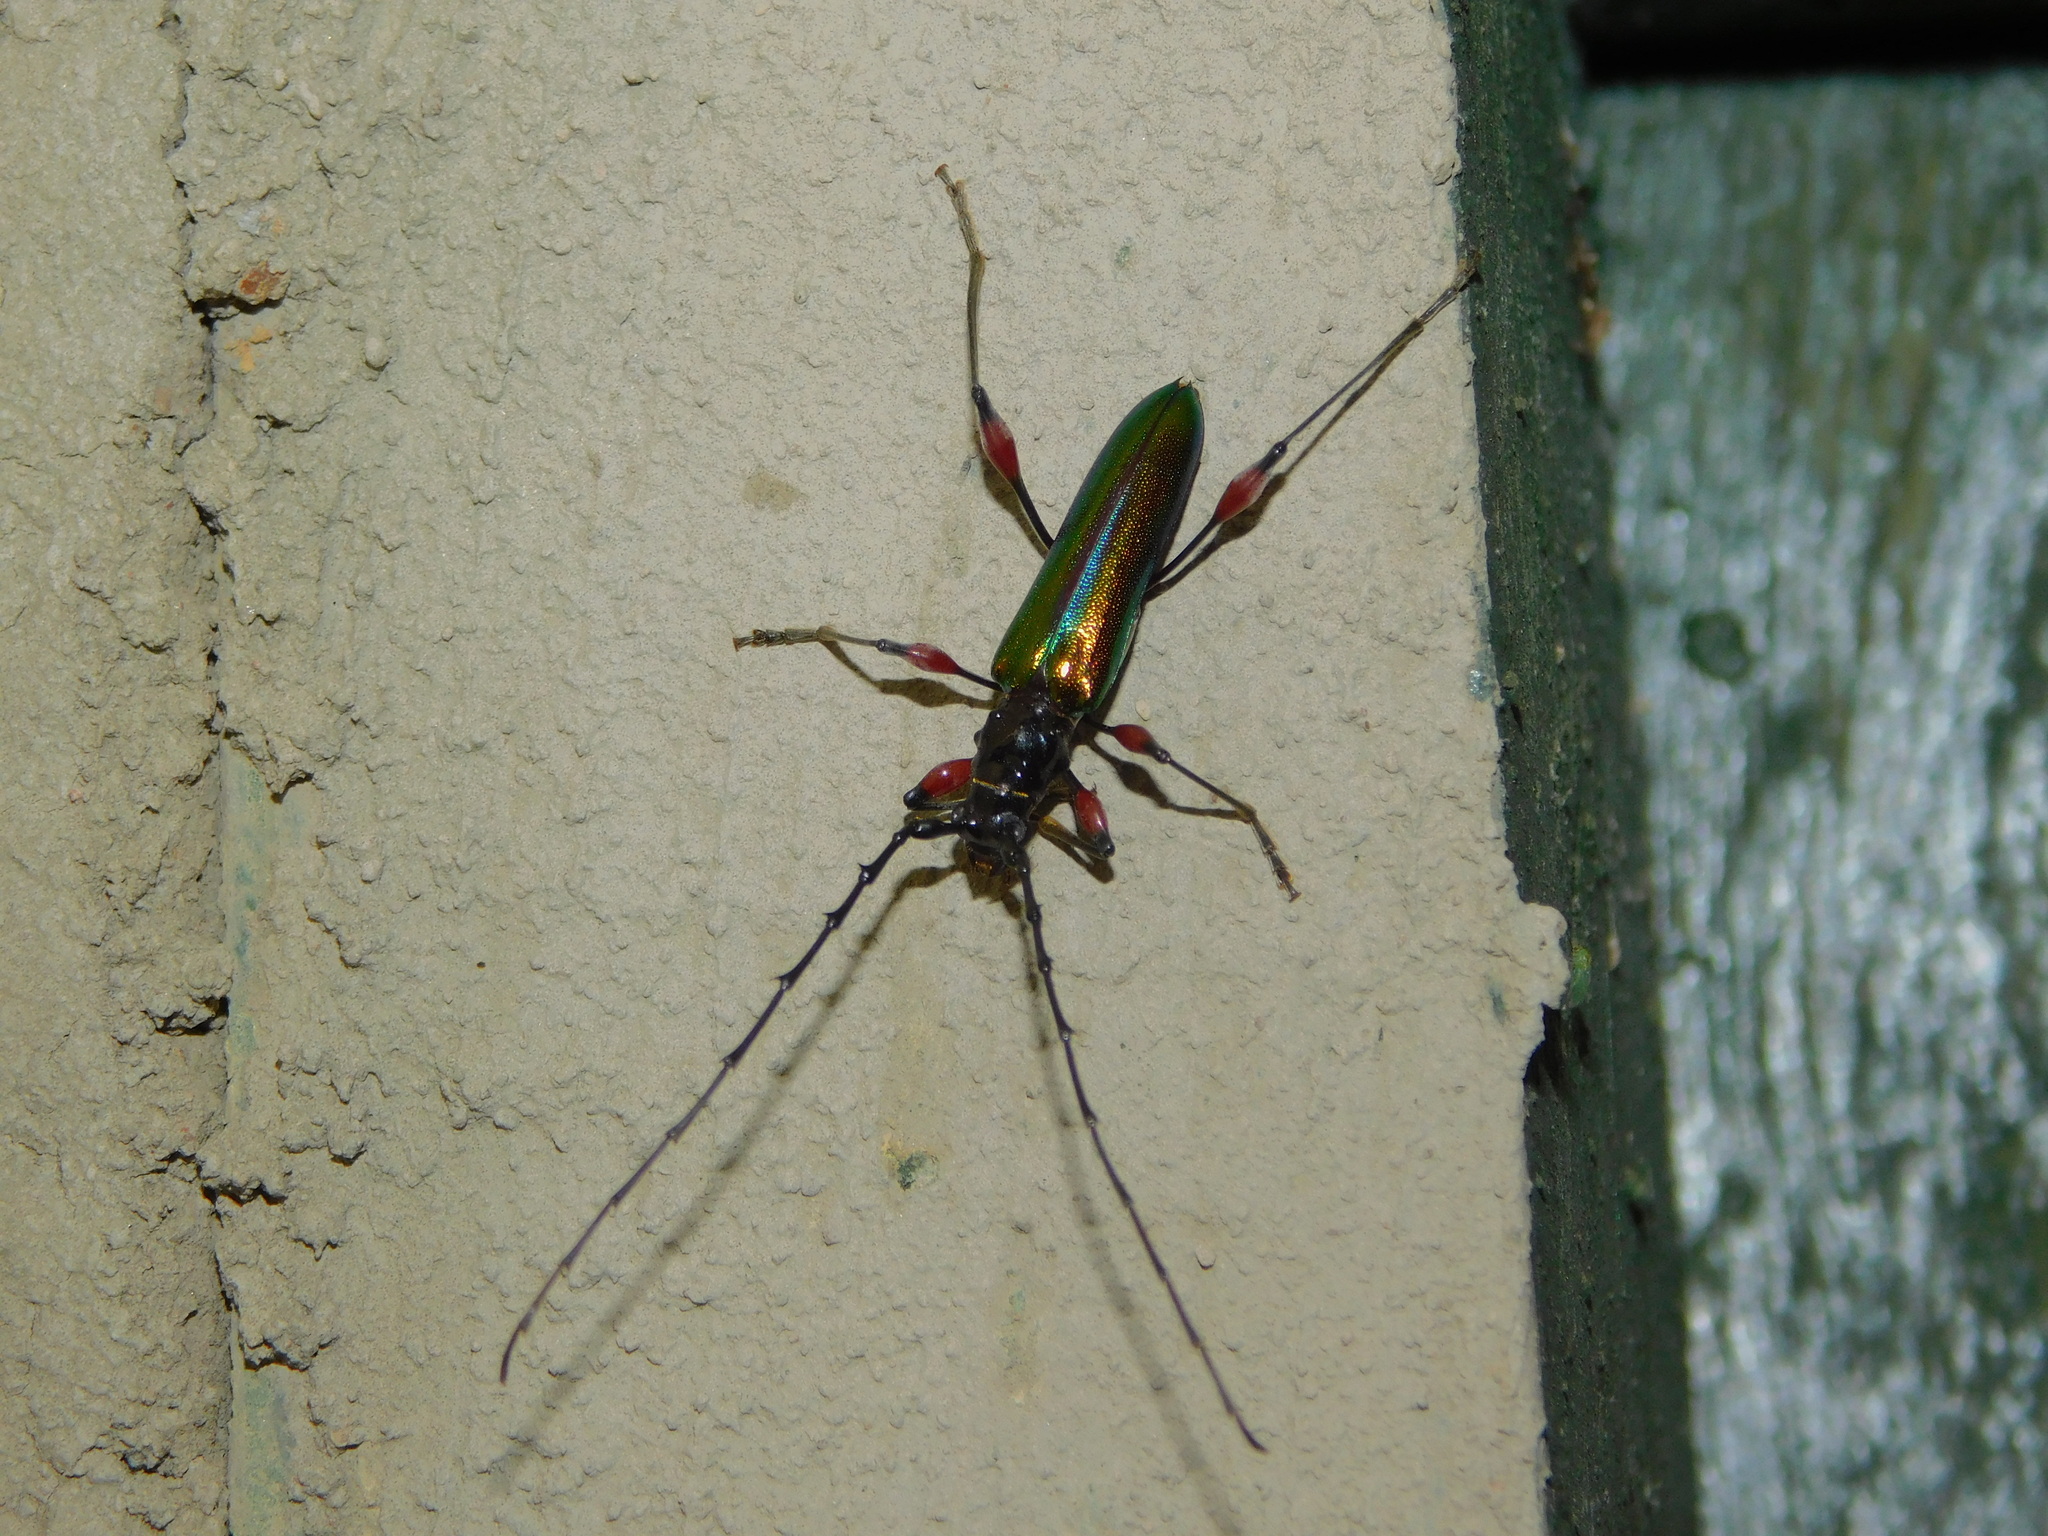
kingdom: Animalia
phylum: Arthropoda
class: Insecta
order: Coleoptera
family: Cerambycidae
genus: Cordylomera
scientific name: Cordylomera spinicornis
